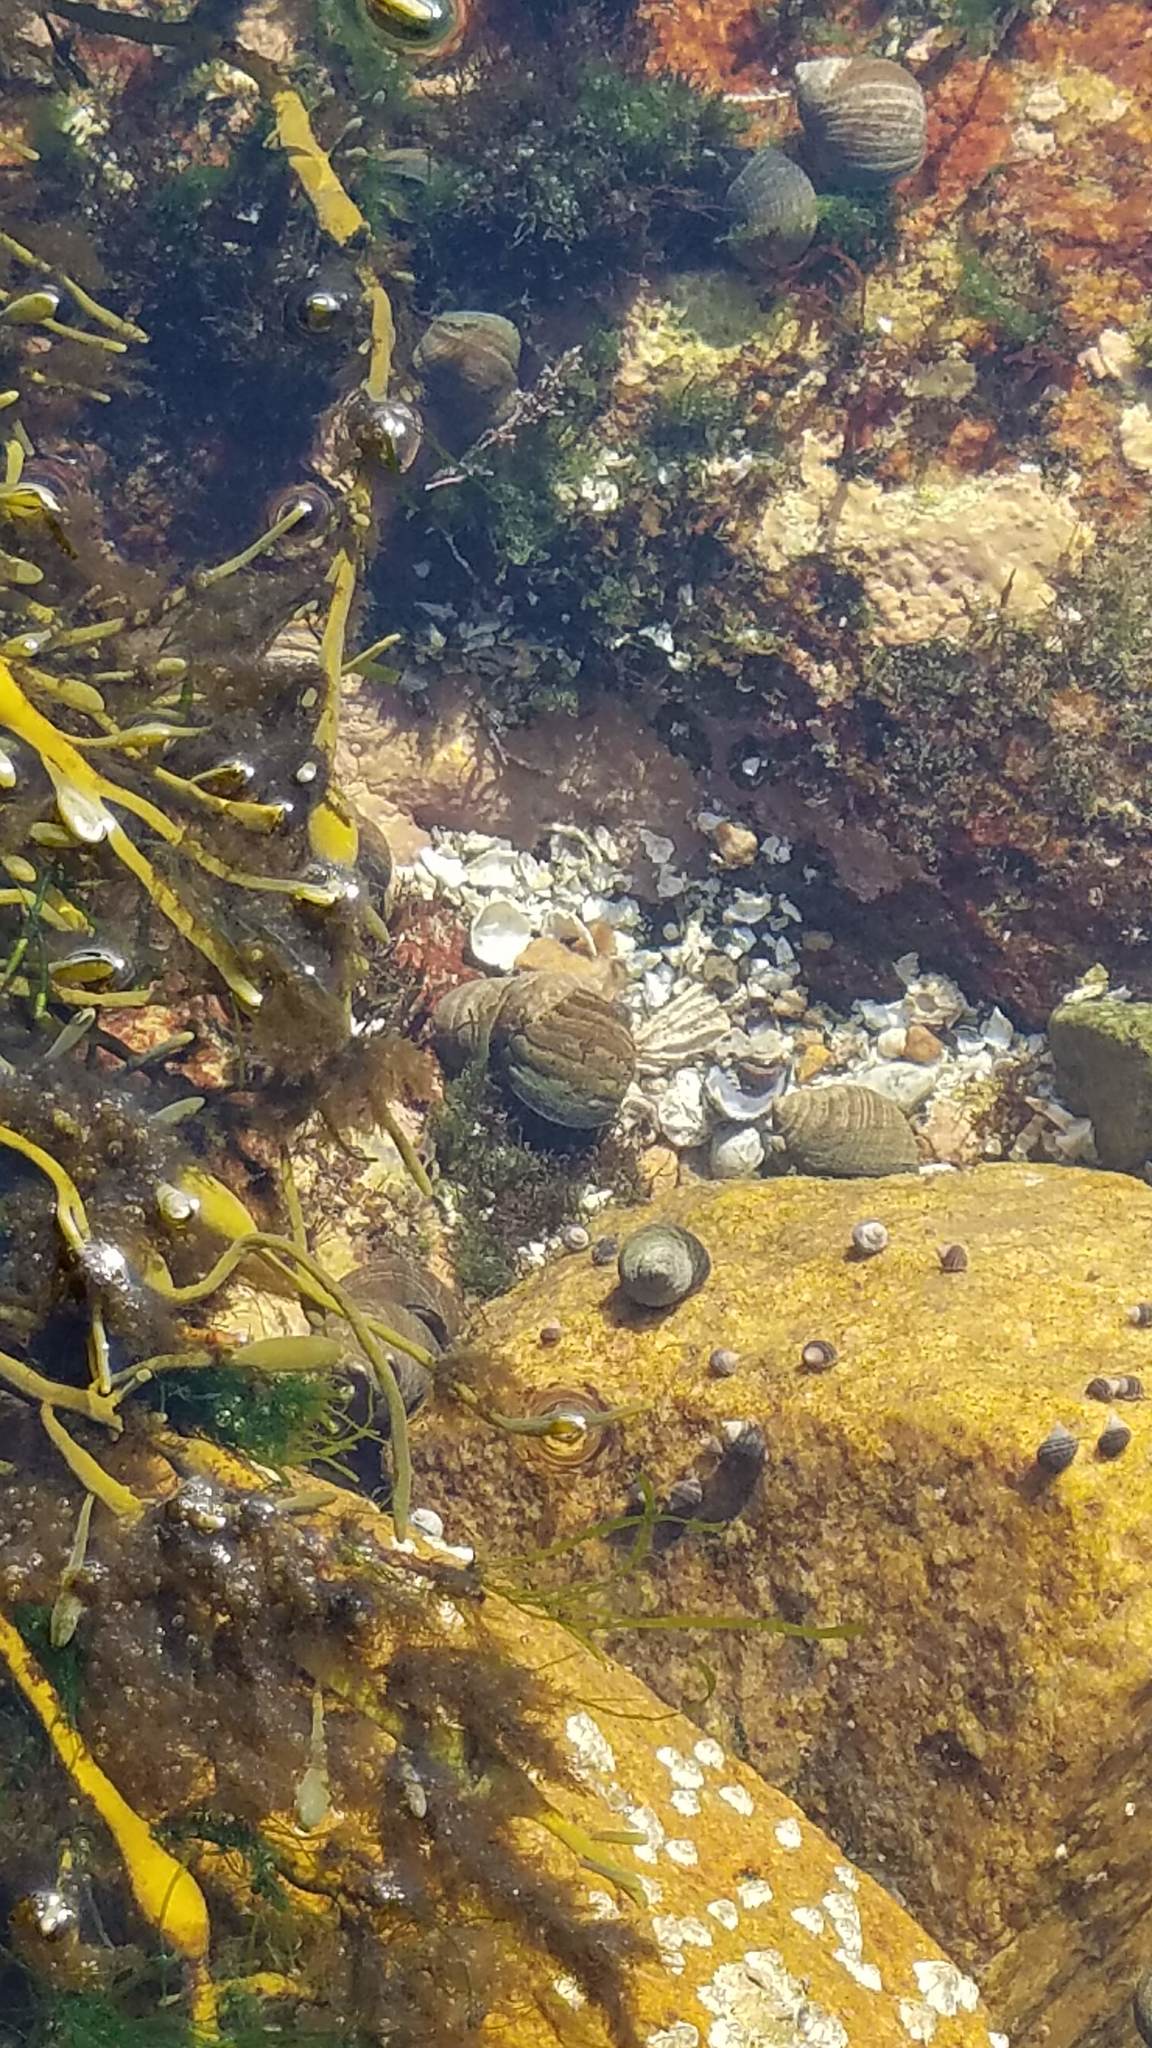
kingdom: Animalia
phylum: Mollusca
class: Gastropoda
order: Littorinimorpha
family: Littorinidae
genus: Littorina
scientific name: Littorina littorea
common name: Common periwinkle
